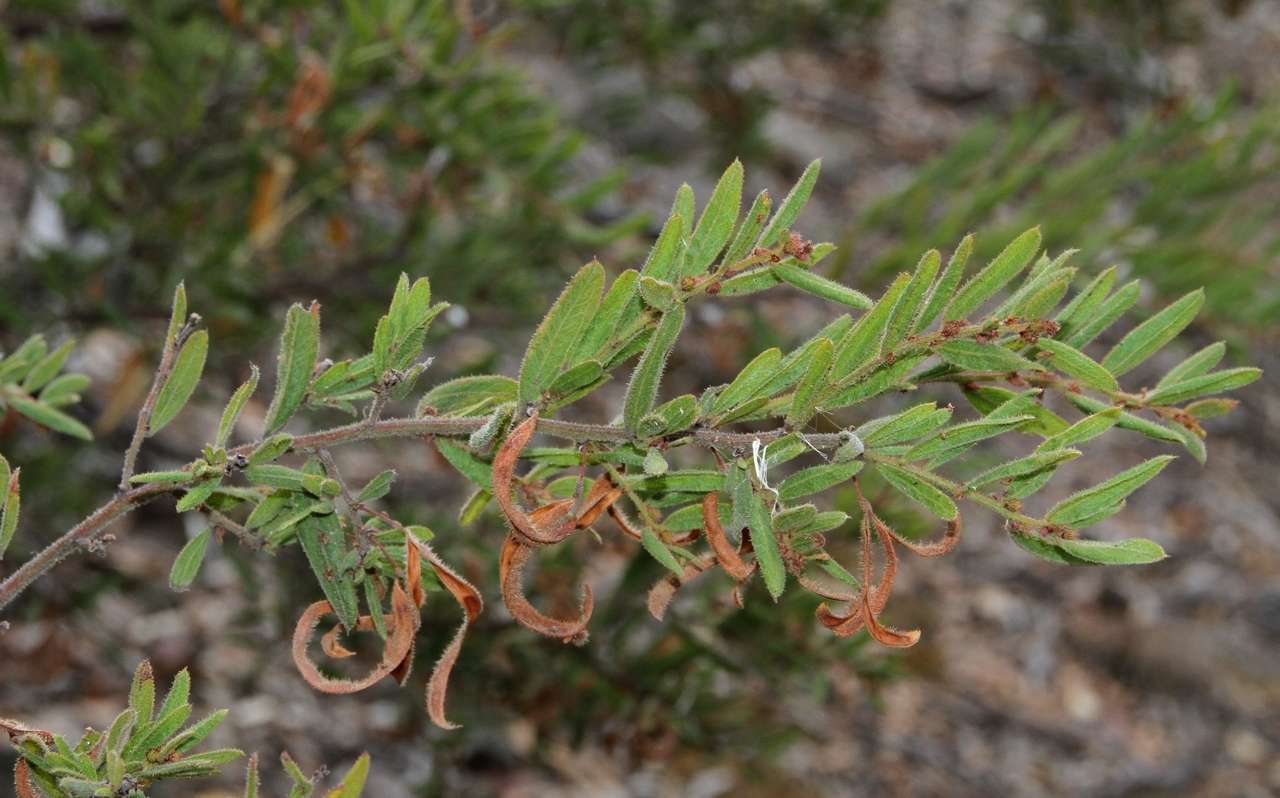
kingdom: Plantae
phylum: Tracheophyta
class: Magnoliopsida
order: Fabales
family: Fabaceae
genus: Acacia
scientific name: Acacia aspera
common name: Rough wattle
